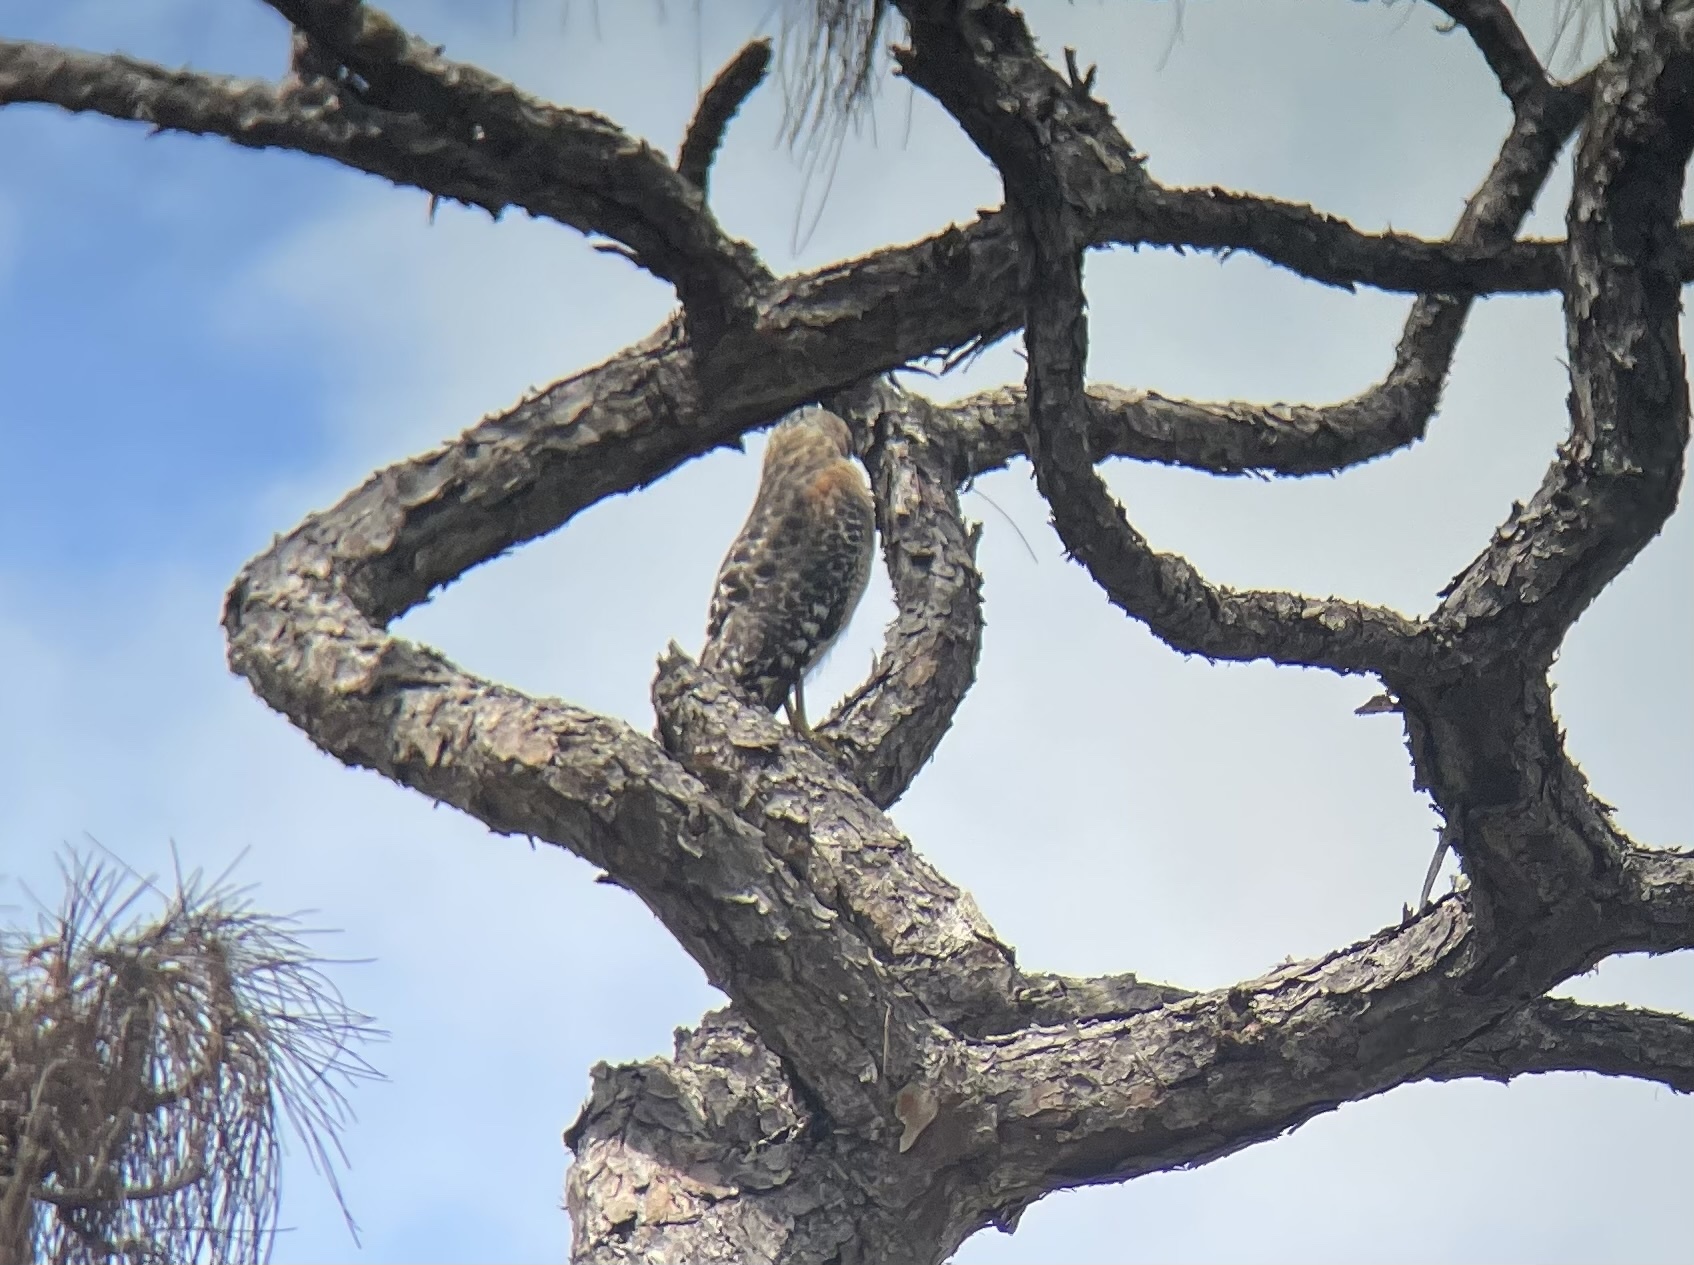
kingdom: Animalia
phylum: Chordata
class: Aves
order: Accipitriformes
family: Accipitridae
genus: Buteo
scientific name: Buteo lineatus
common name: Red-shouldered hawk
